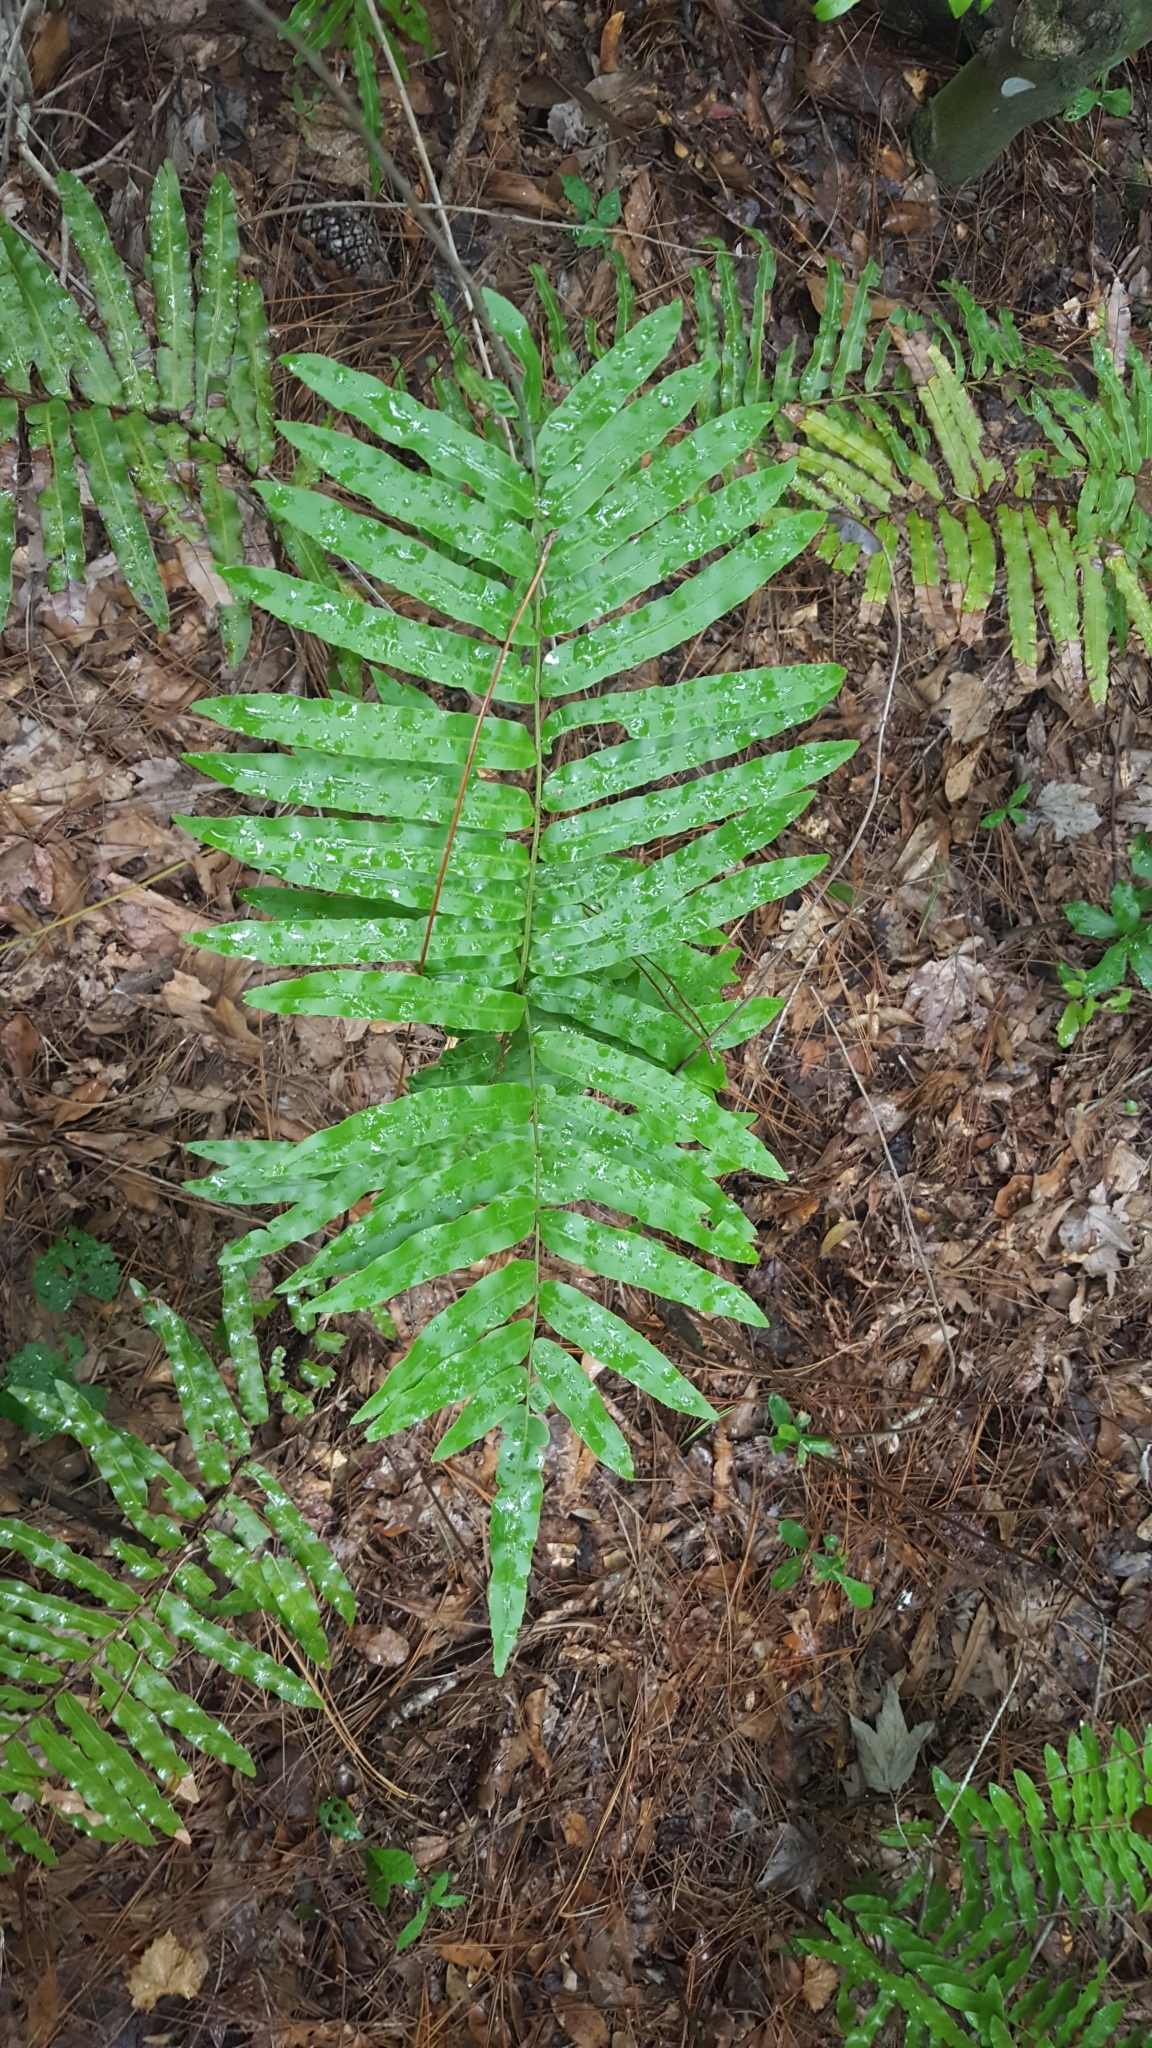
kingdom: Plantae
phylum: Tracheophyta
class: Polypodiopsida
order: Polypodiales
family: Blechnaceae
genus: Telmatoblechnum
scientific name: Telmatoblechnum serrulatum
